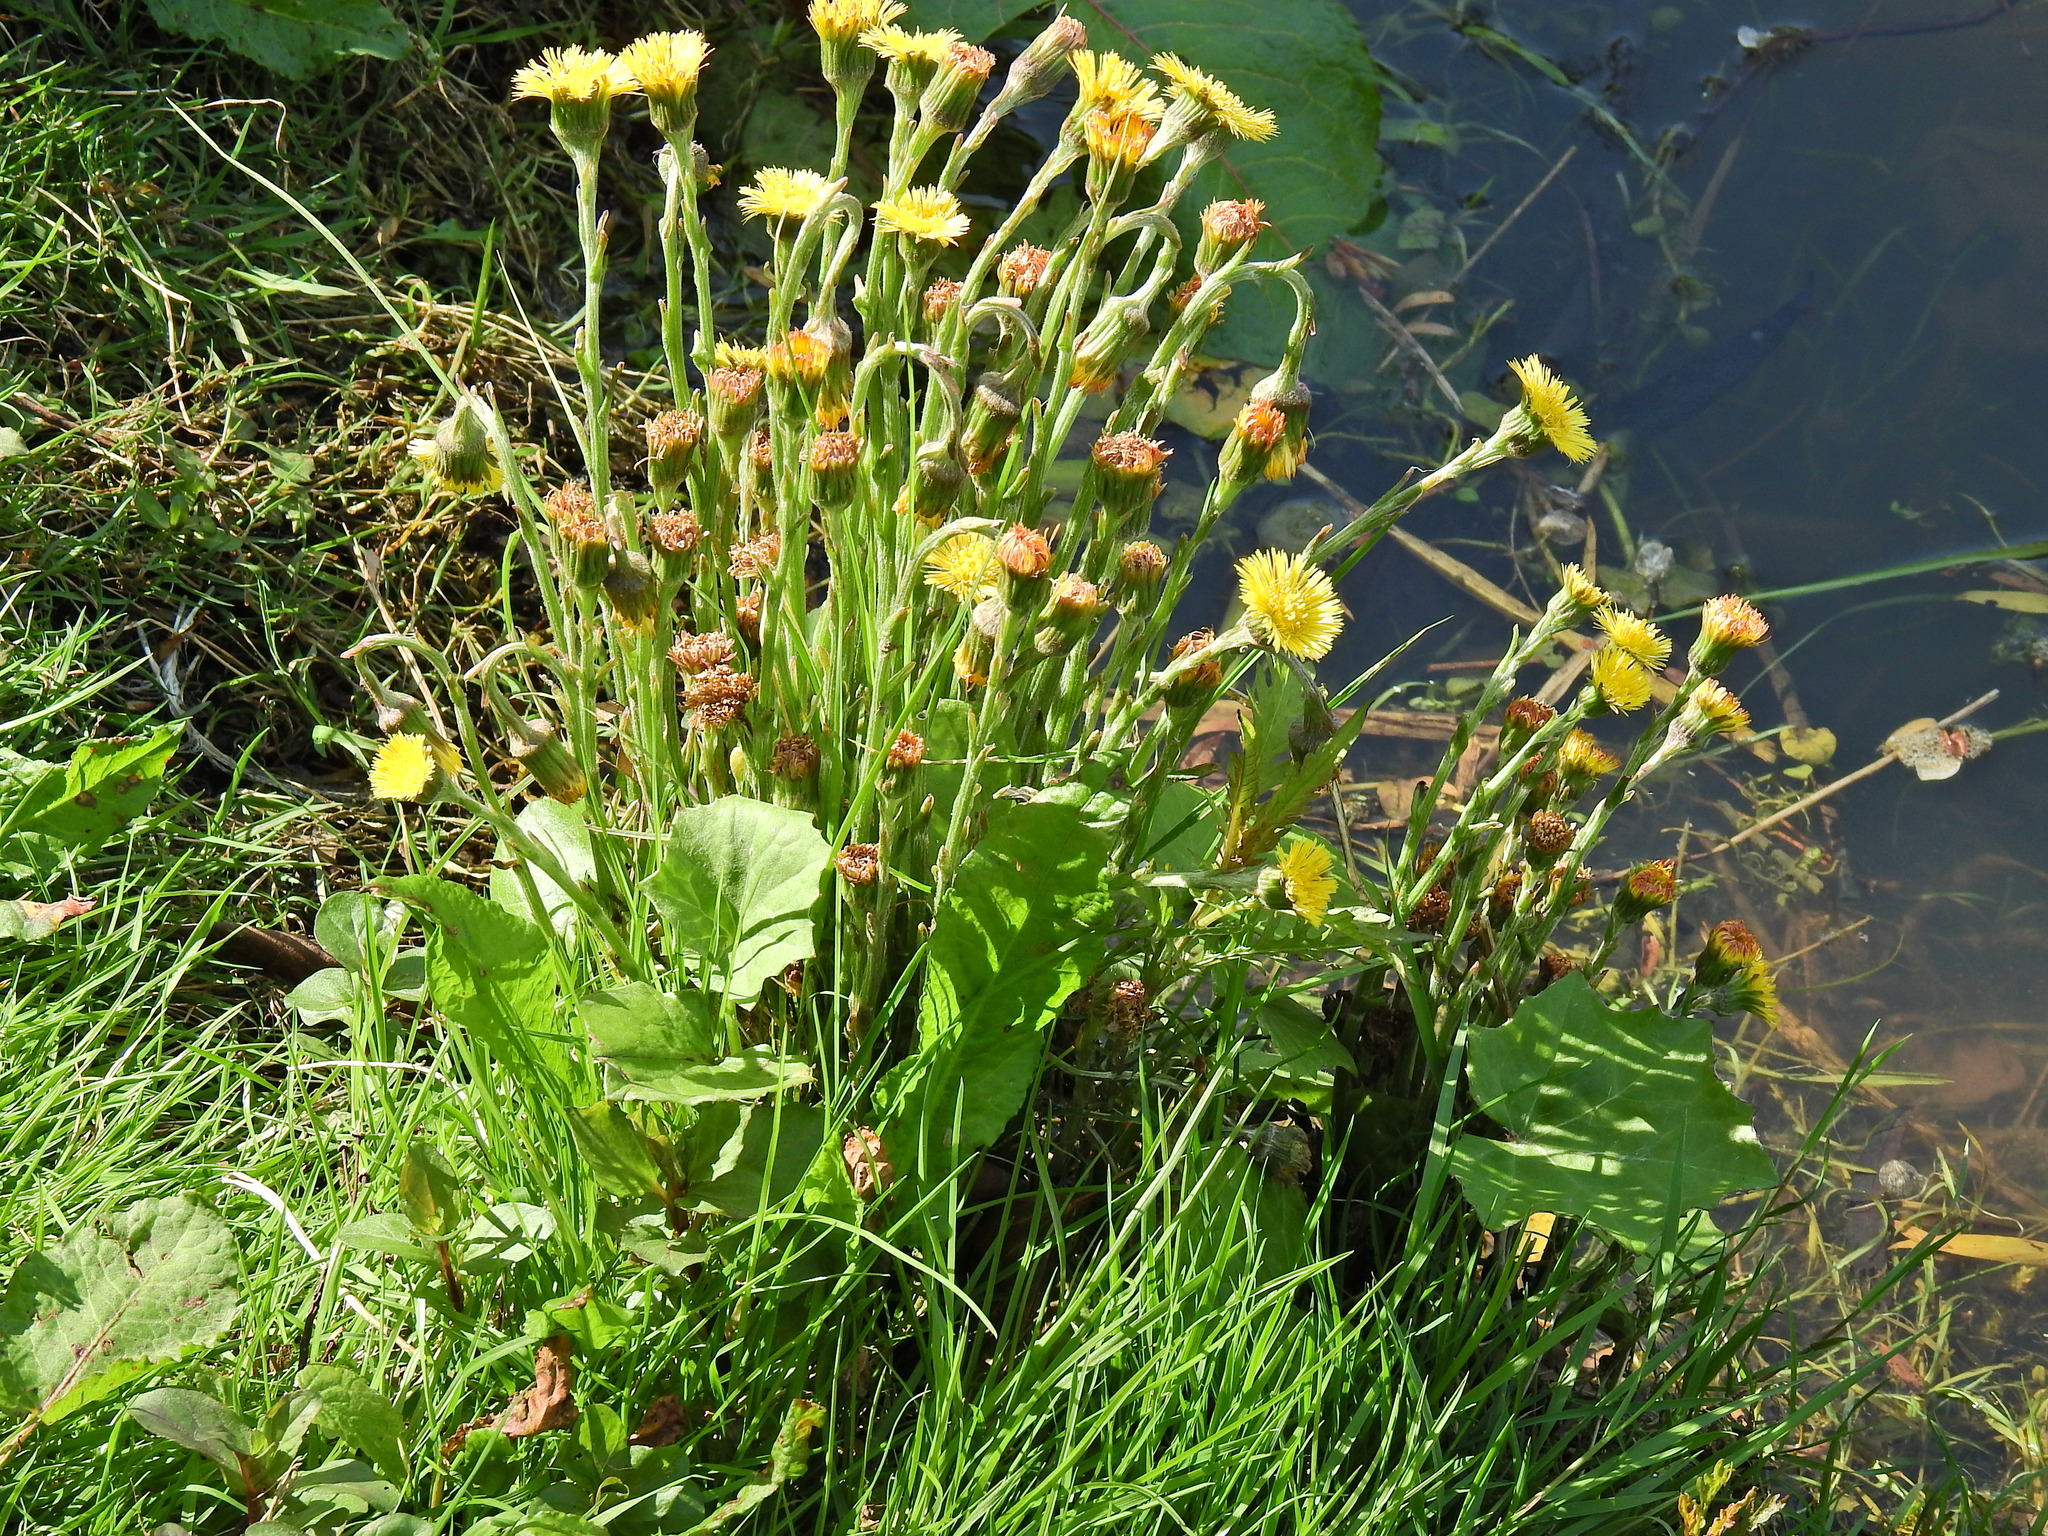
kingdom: Plantae
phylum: Tracheophyta
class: Magnoliopsida
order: Asterales
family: Asteraceae
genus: Tussilago
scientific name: Tussilago farfara
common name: Coltsfoot
